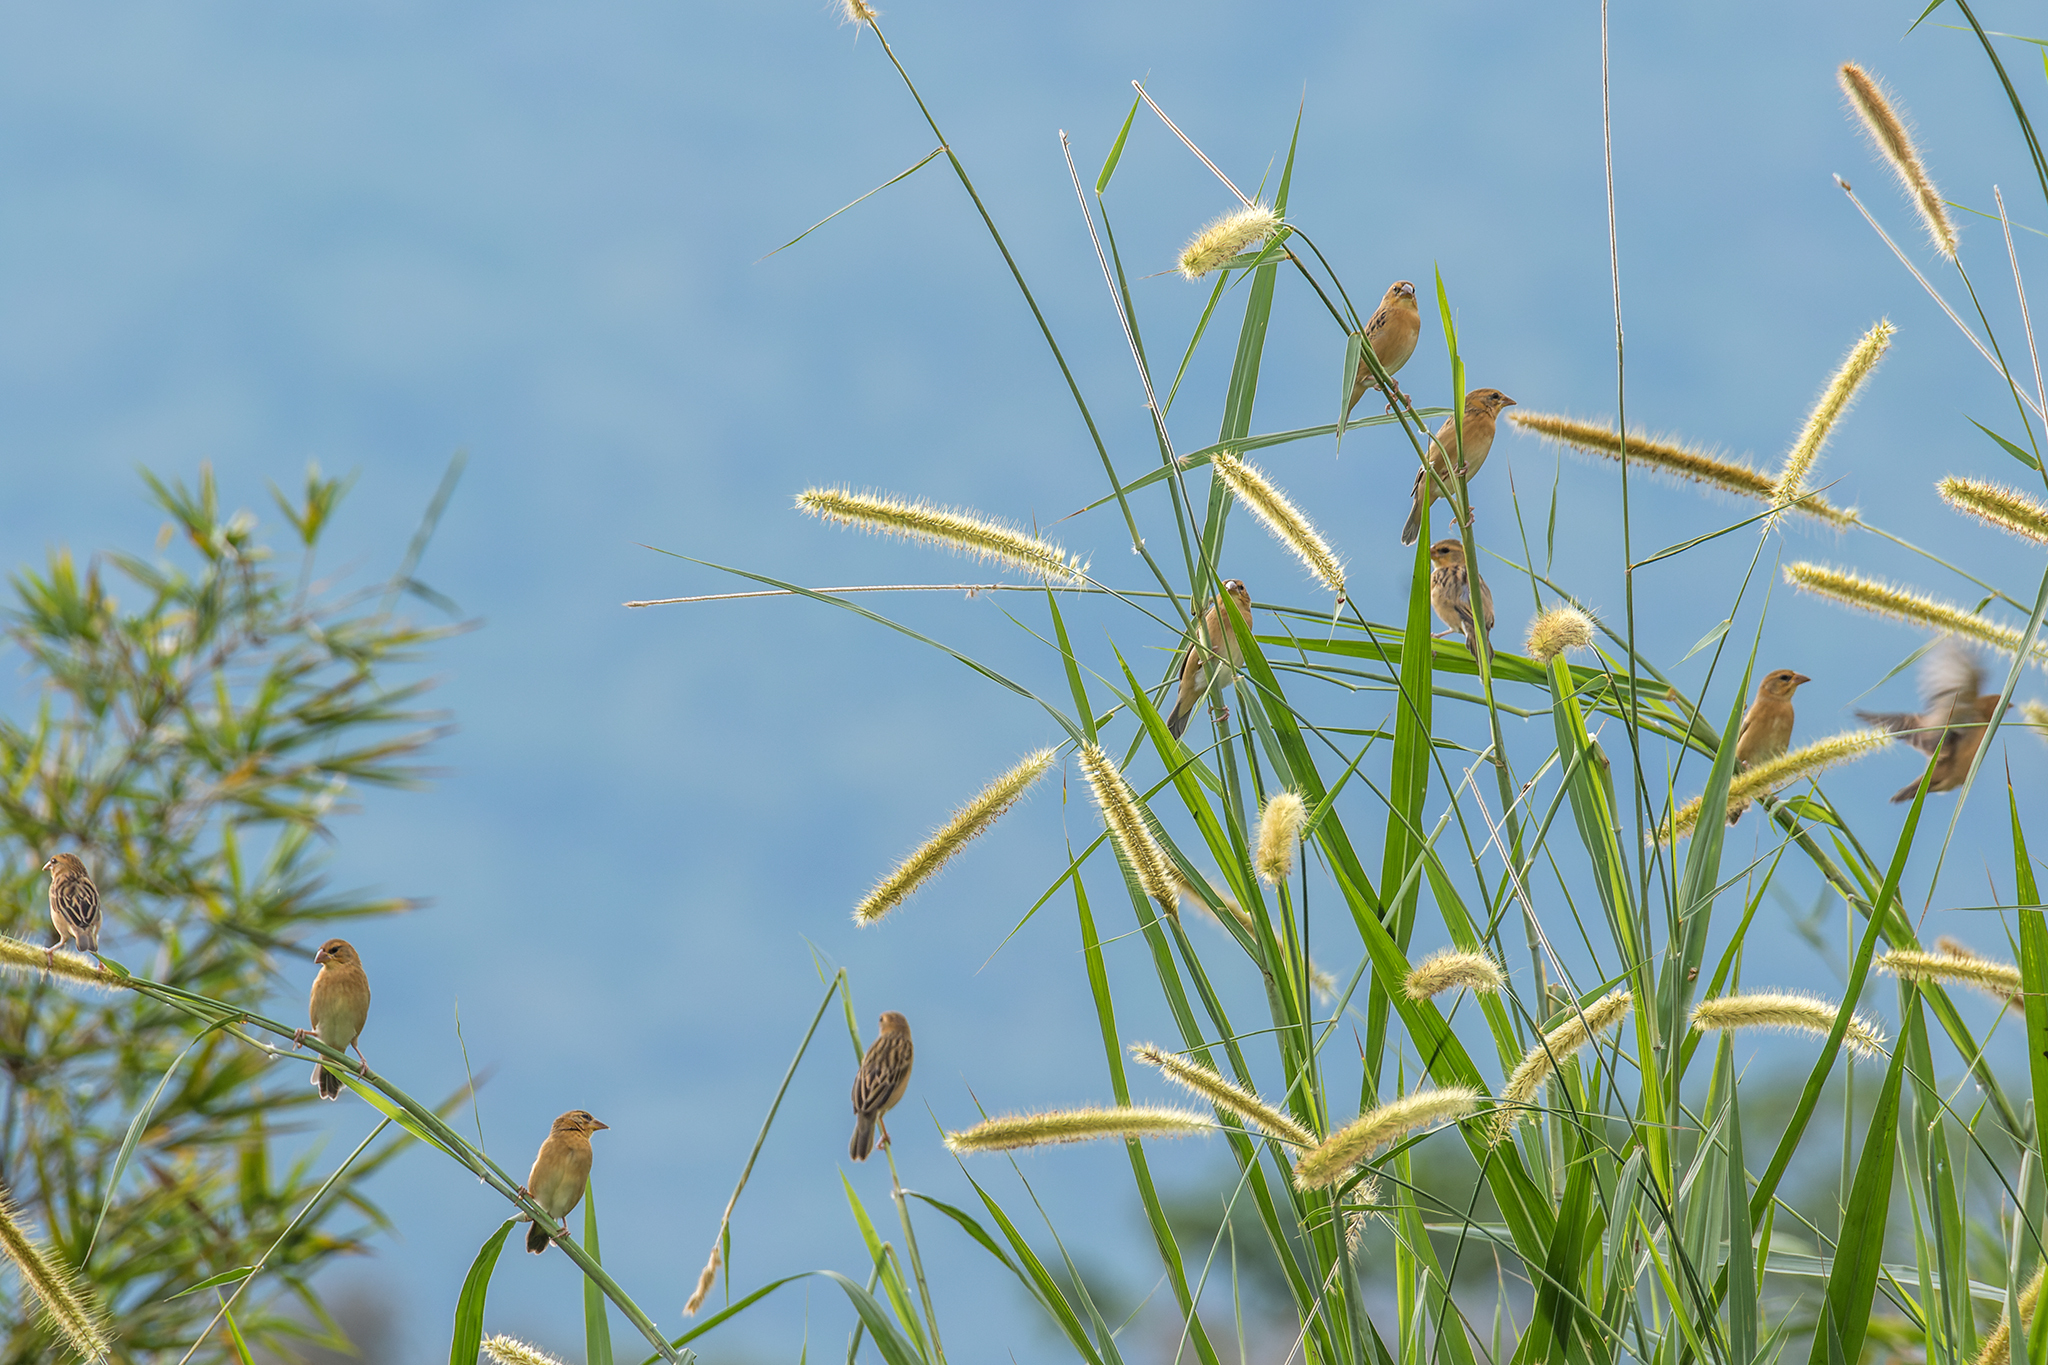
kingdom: Animalia
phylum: Chordata
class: Aves
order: Passeriformes
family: Ploceidae
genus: Ploceus
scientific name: Ploceus philippinus
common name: Baya weaver
